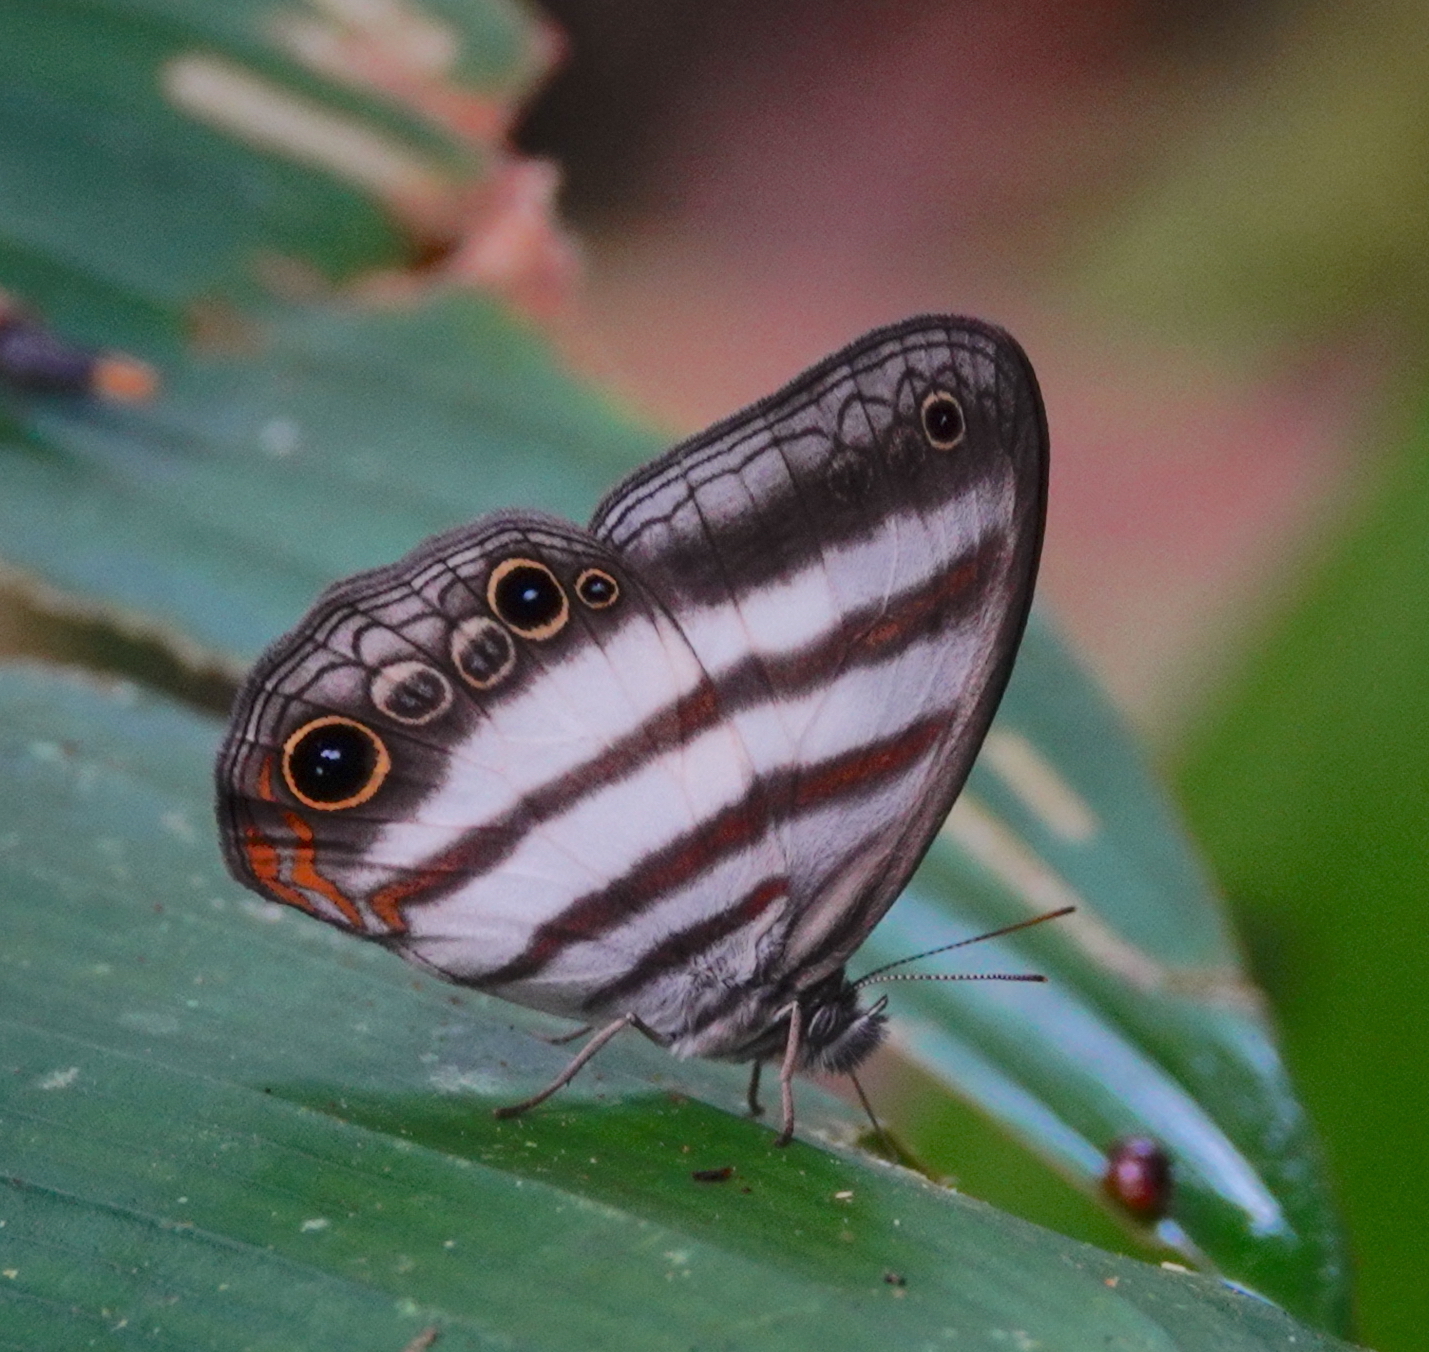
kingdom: Animalia
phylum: Arthropoda
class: Insecta
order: Lepidoptera
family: Nymphalidae
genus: Pareuptychia
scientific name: Pareuptychia binocula
